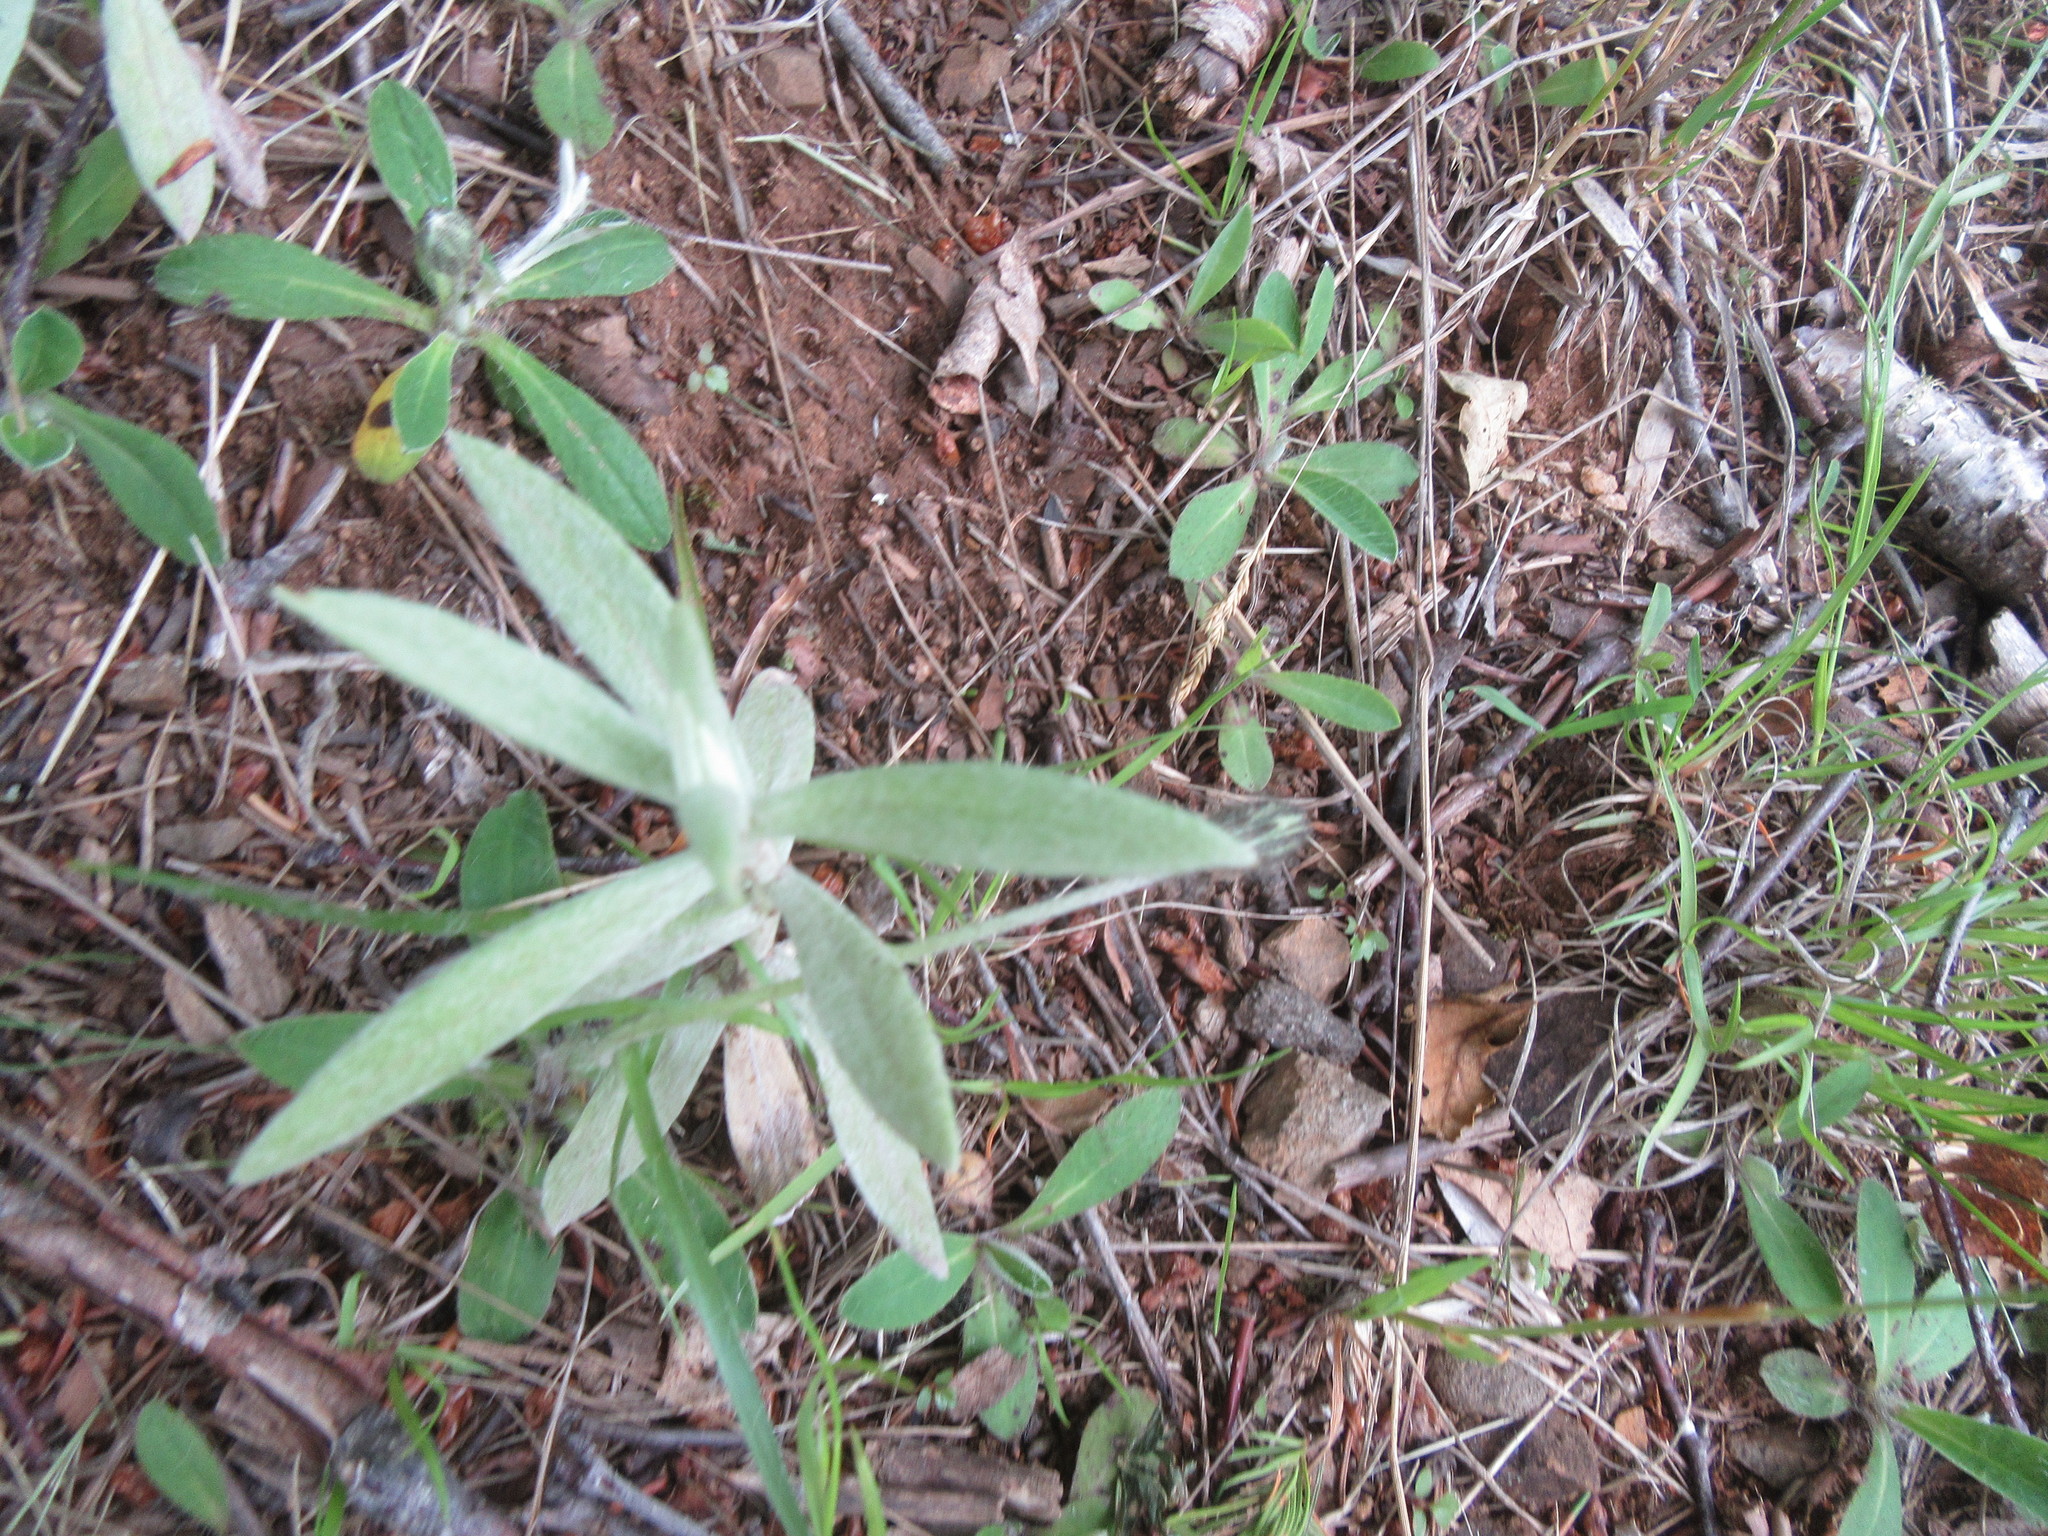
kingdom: Plantae
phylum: Tracheophyta
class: Magnoliopsida
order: Asterales
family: Asteraceae
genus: Anaphalis
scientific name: Anaphalis margaritacea
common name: Pearly everlasting
